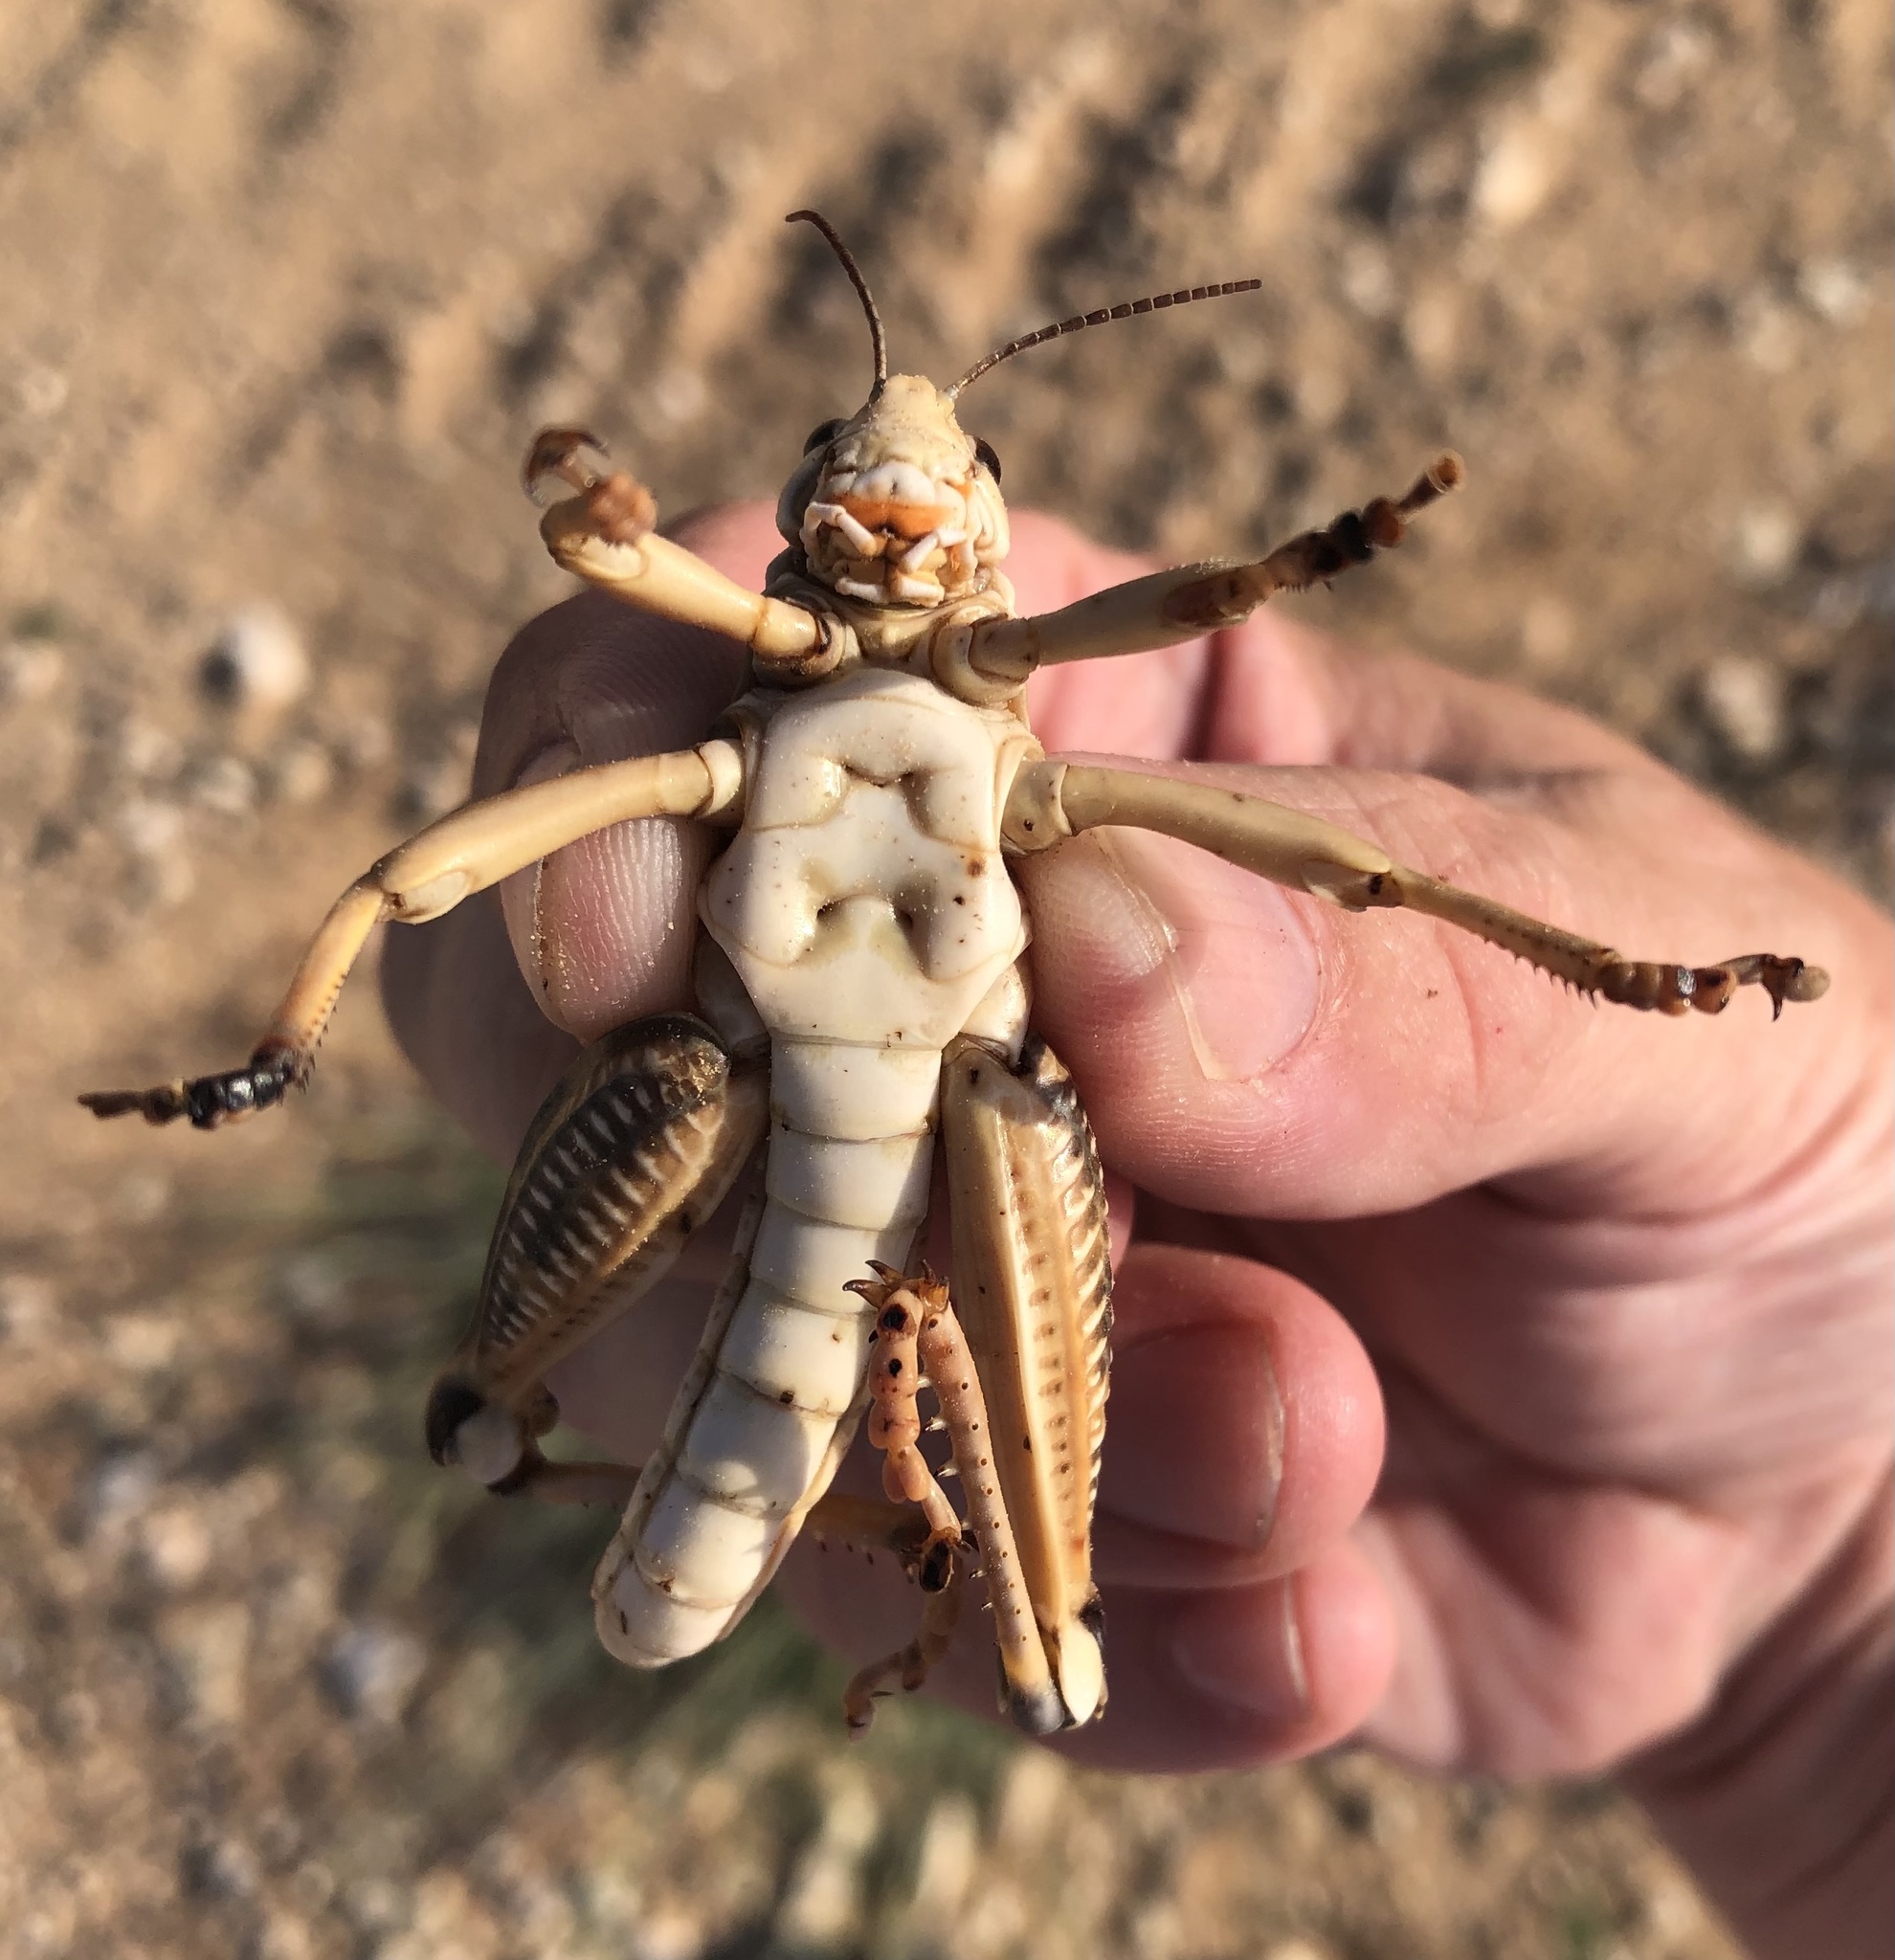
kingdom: Animalia
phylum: Arthropoda
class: Insecta
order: Orthoptera
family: Romaleidae
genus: Brachystola
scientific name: Brachystola magna
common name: Plains lubber grasshopper
